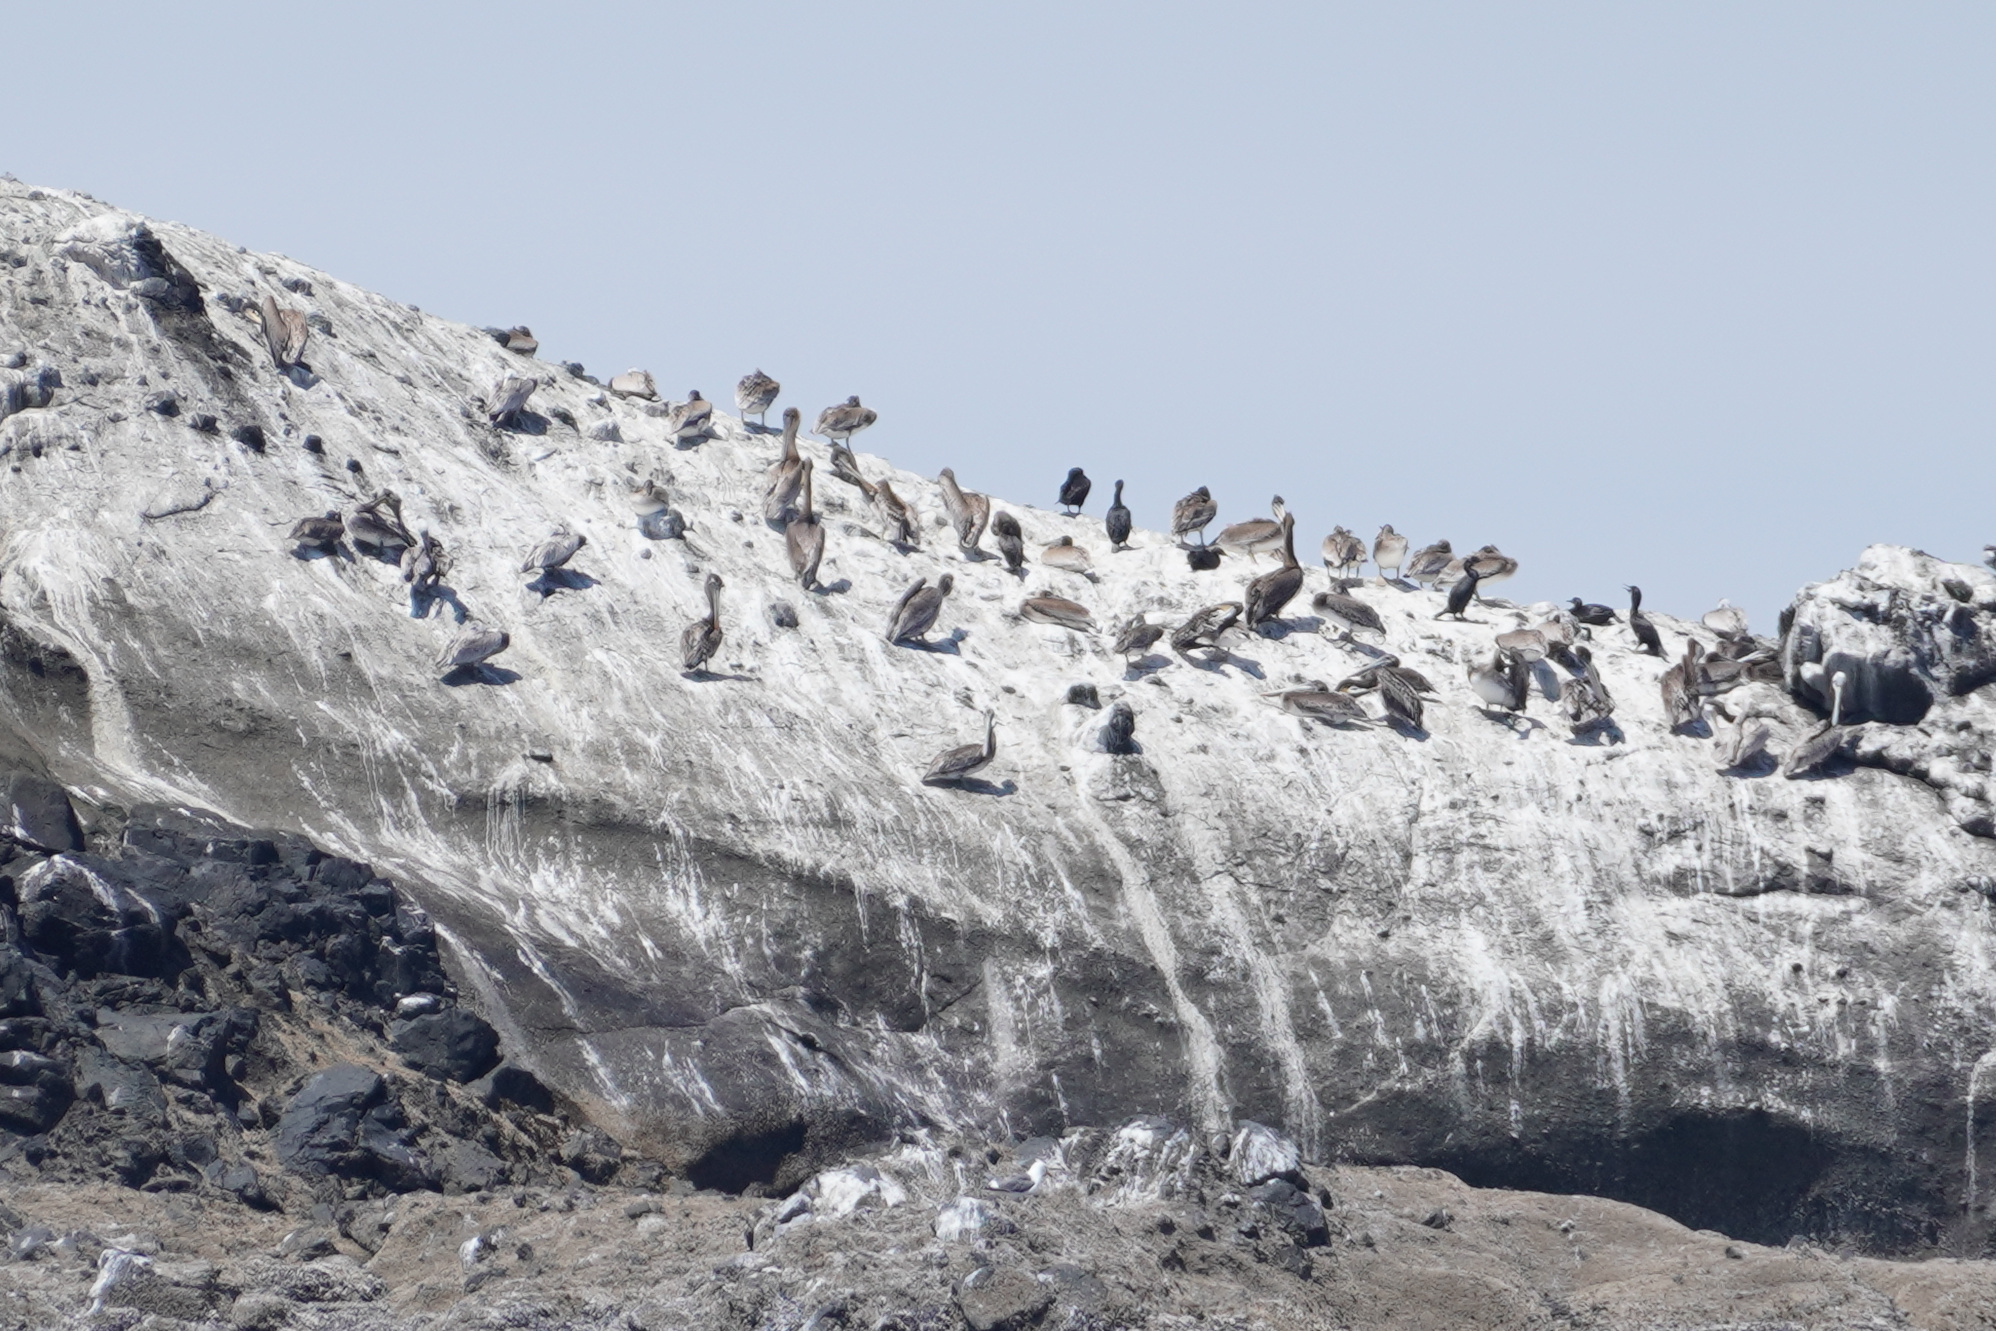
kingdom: Animalia
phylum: Chordata
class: Aves
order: Pelecaniformes
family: Pelecanidae
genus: Pelecanus
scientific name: Pelecanus occidentalis
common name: Brown pelican
